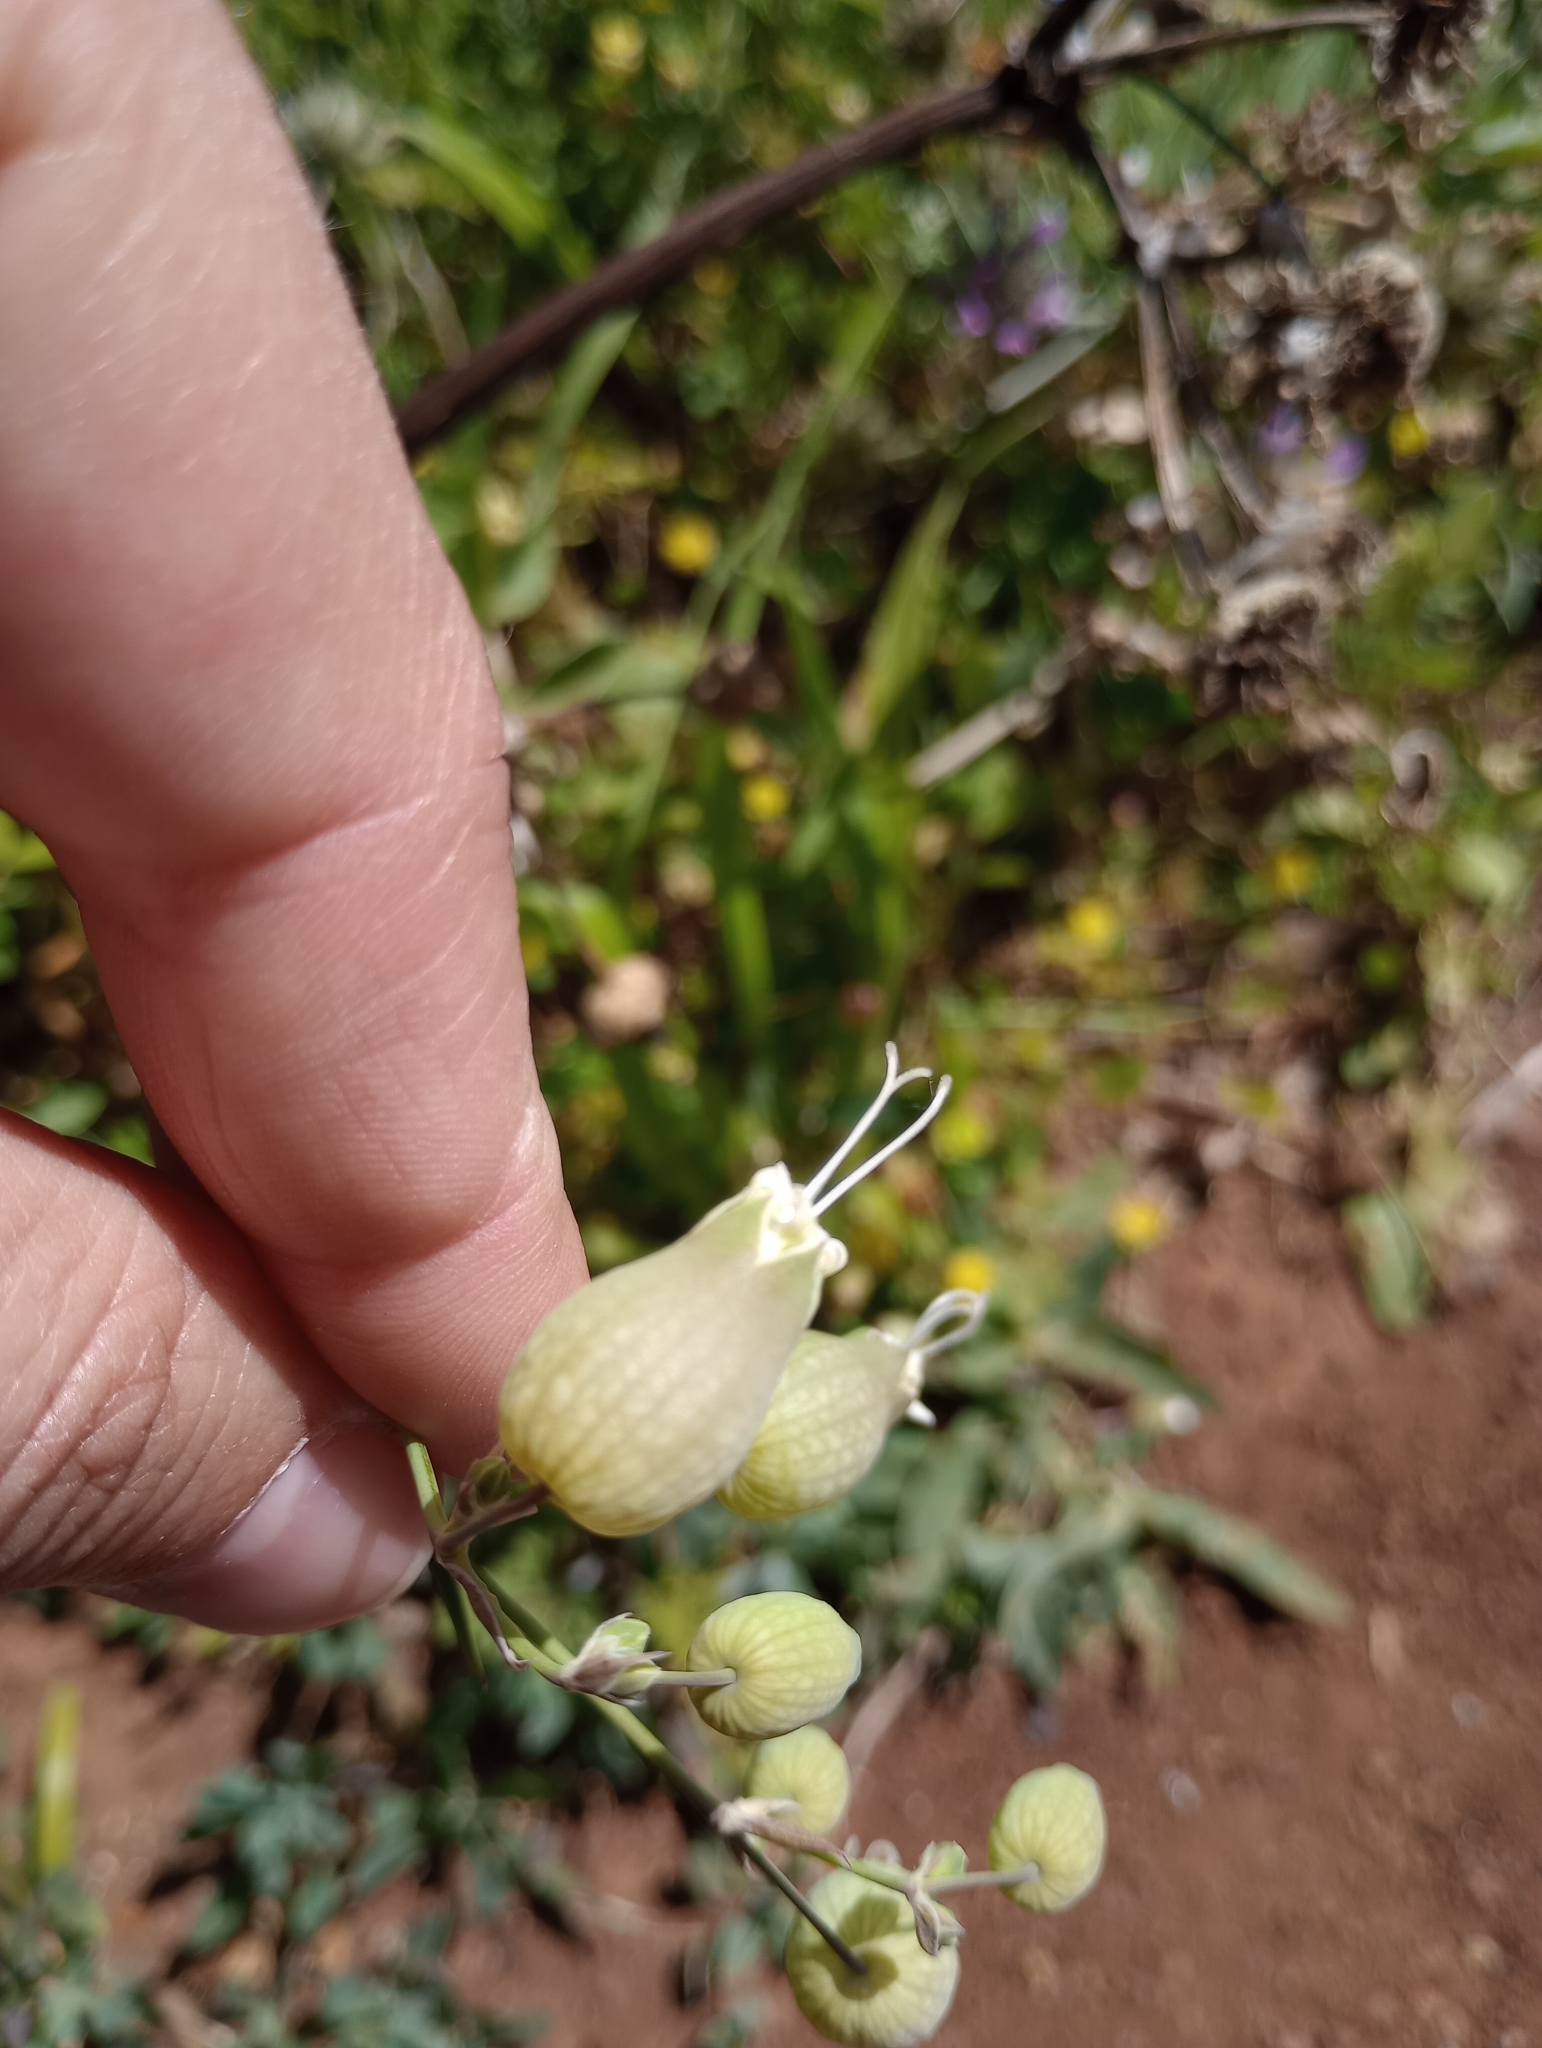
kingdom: Plantae
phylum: Tracheophyta
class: Magnoliopsida
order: Caryophyllales
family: Caryophyllaceae
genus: Silene
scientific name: Silene vulgaris
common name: Bladder campion
